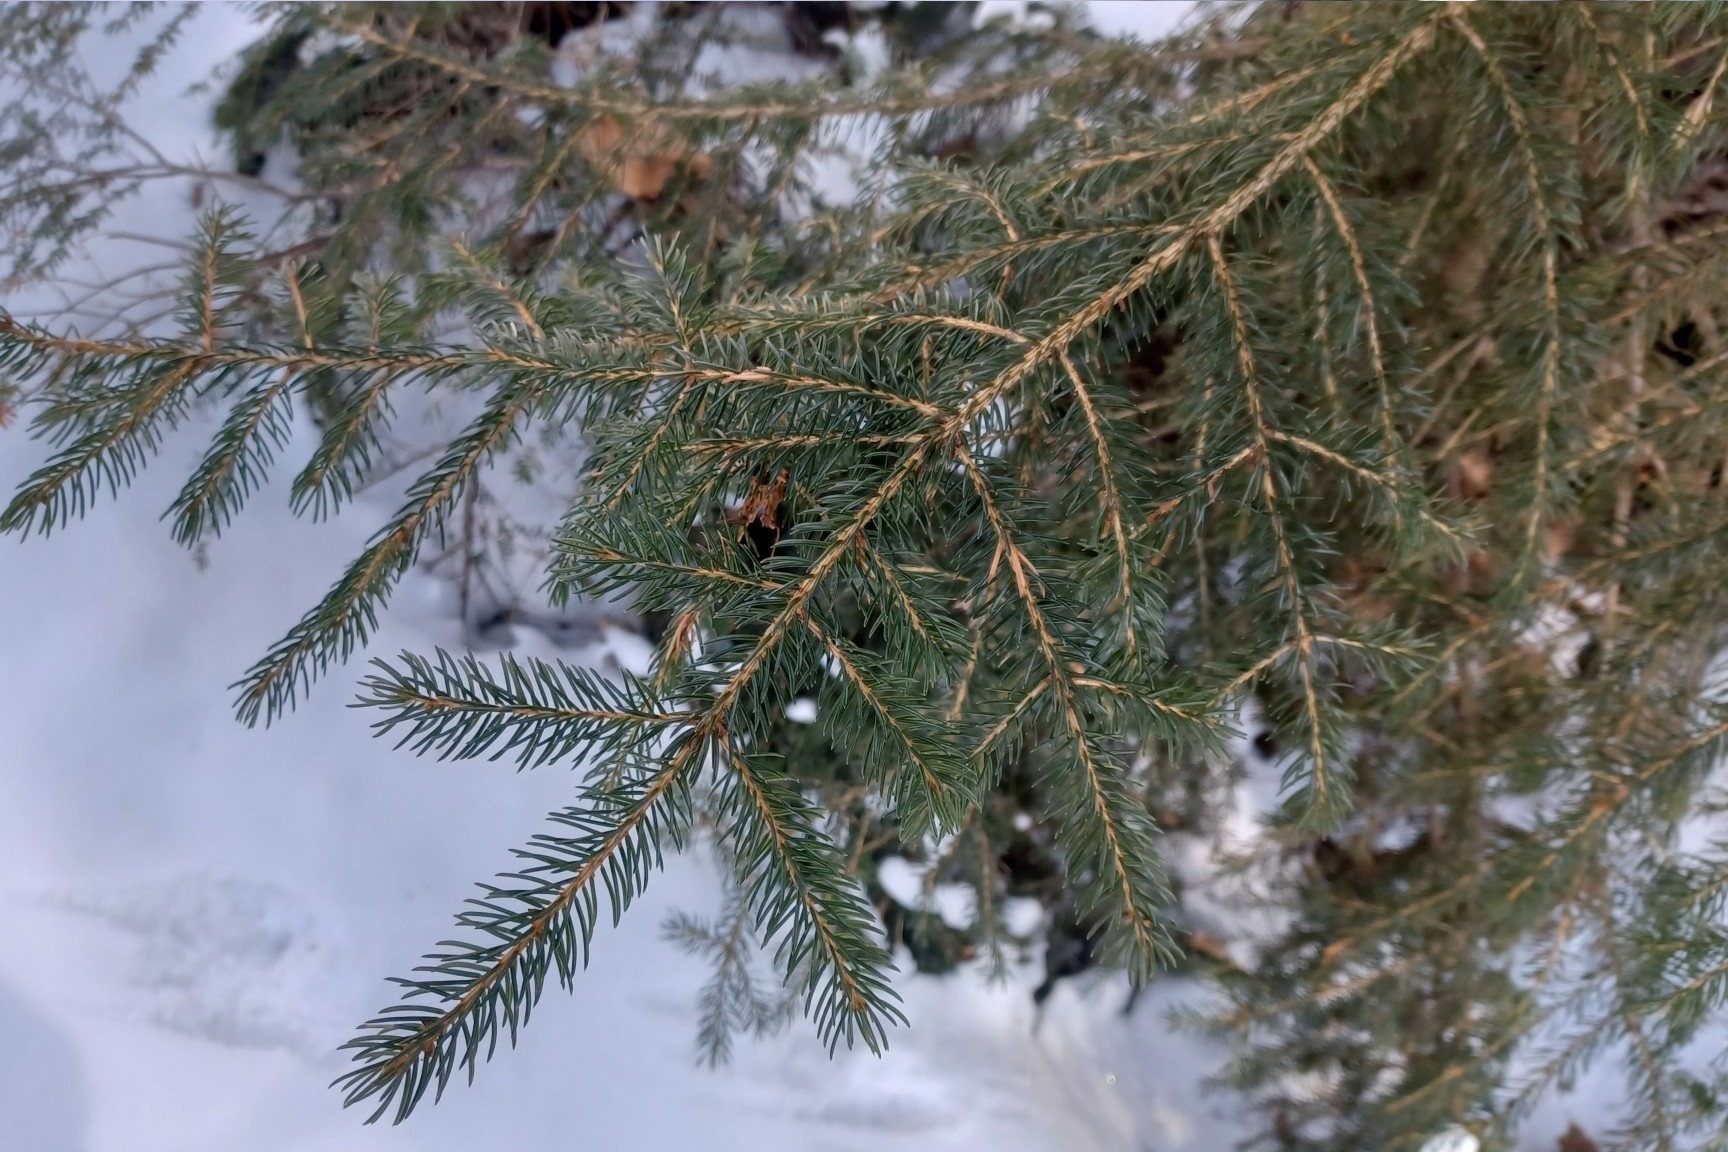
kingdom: Plantae
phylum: Tracheophyta
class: Pinopsida
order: Pinales
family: Pinaceae
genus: Picea
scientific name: Picea rubens
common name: Red spruce
